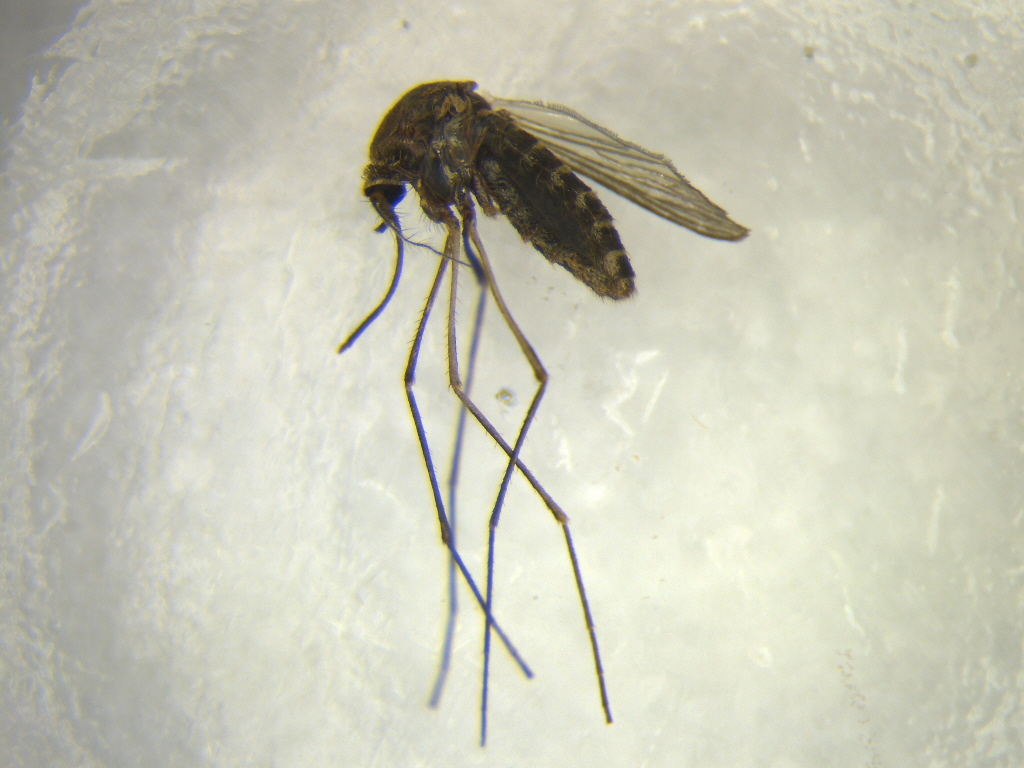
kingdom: Animalia
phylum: Arthropoda
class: Insecta
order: Diptera
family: Culicidae
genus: Culex
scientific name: Culex pervigilans
